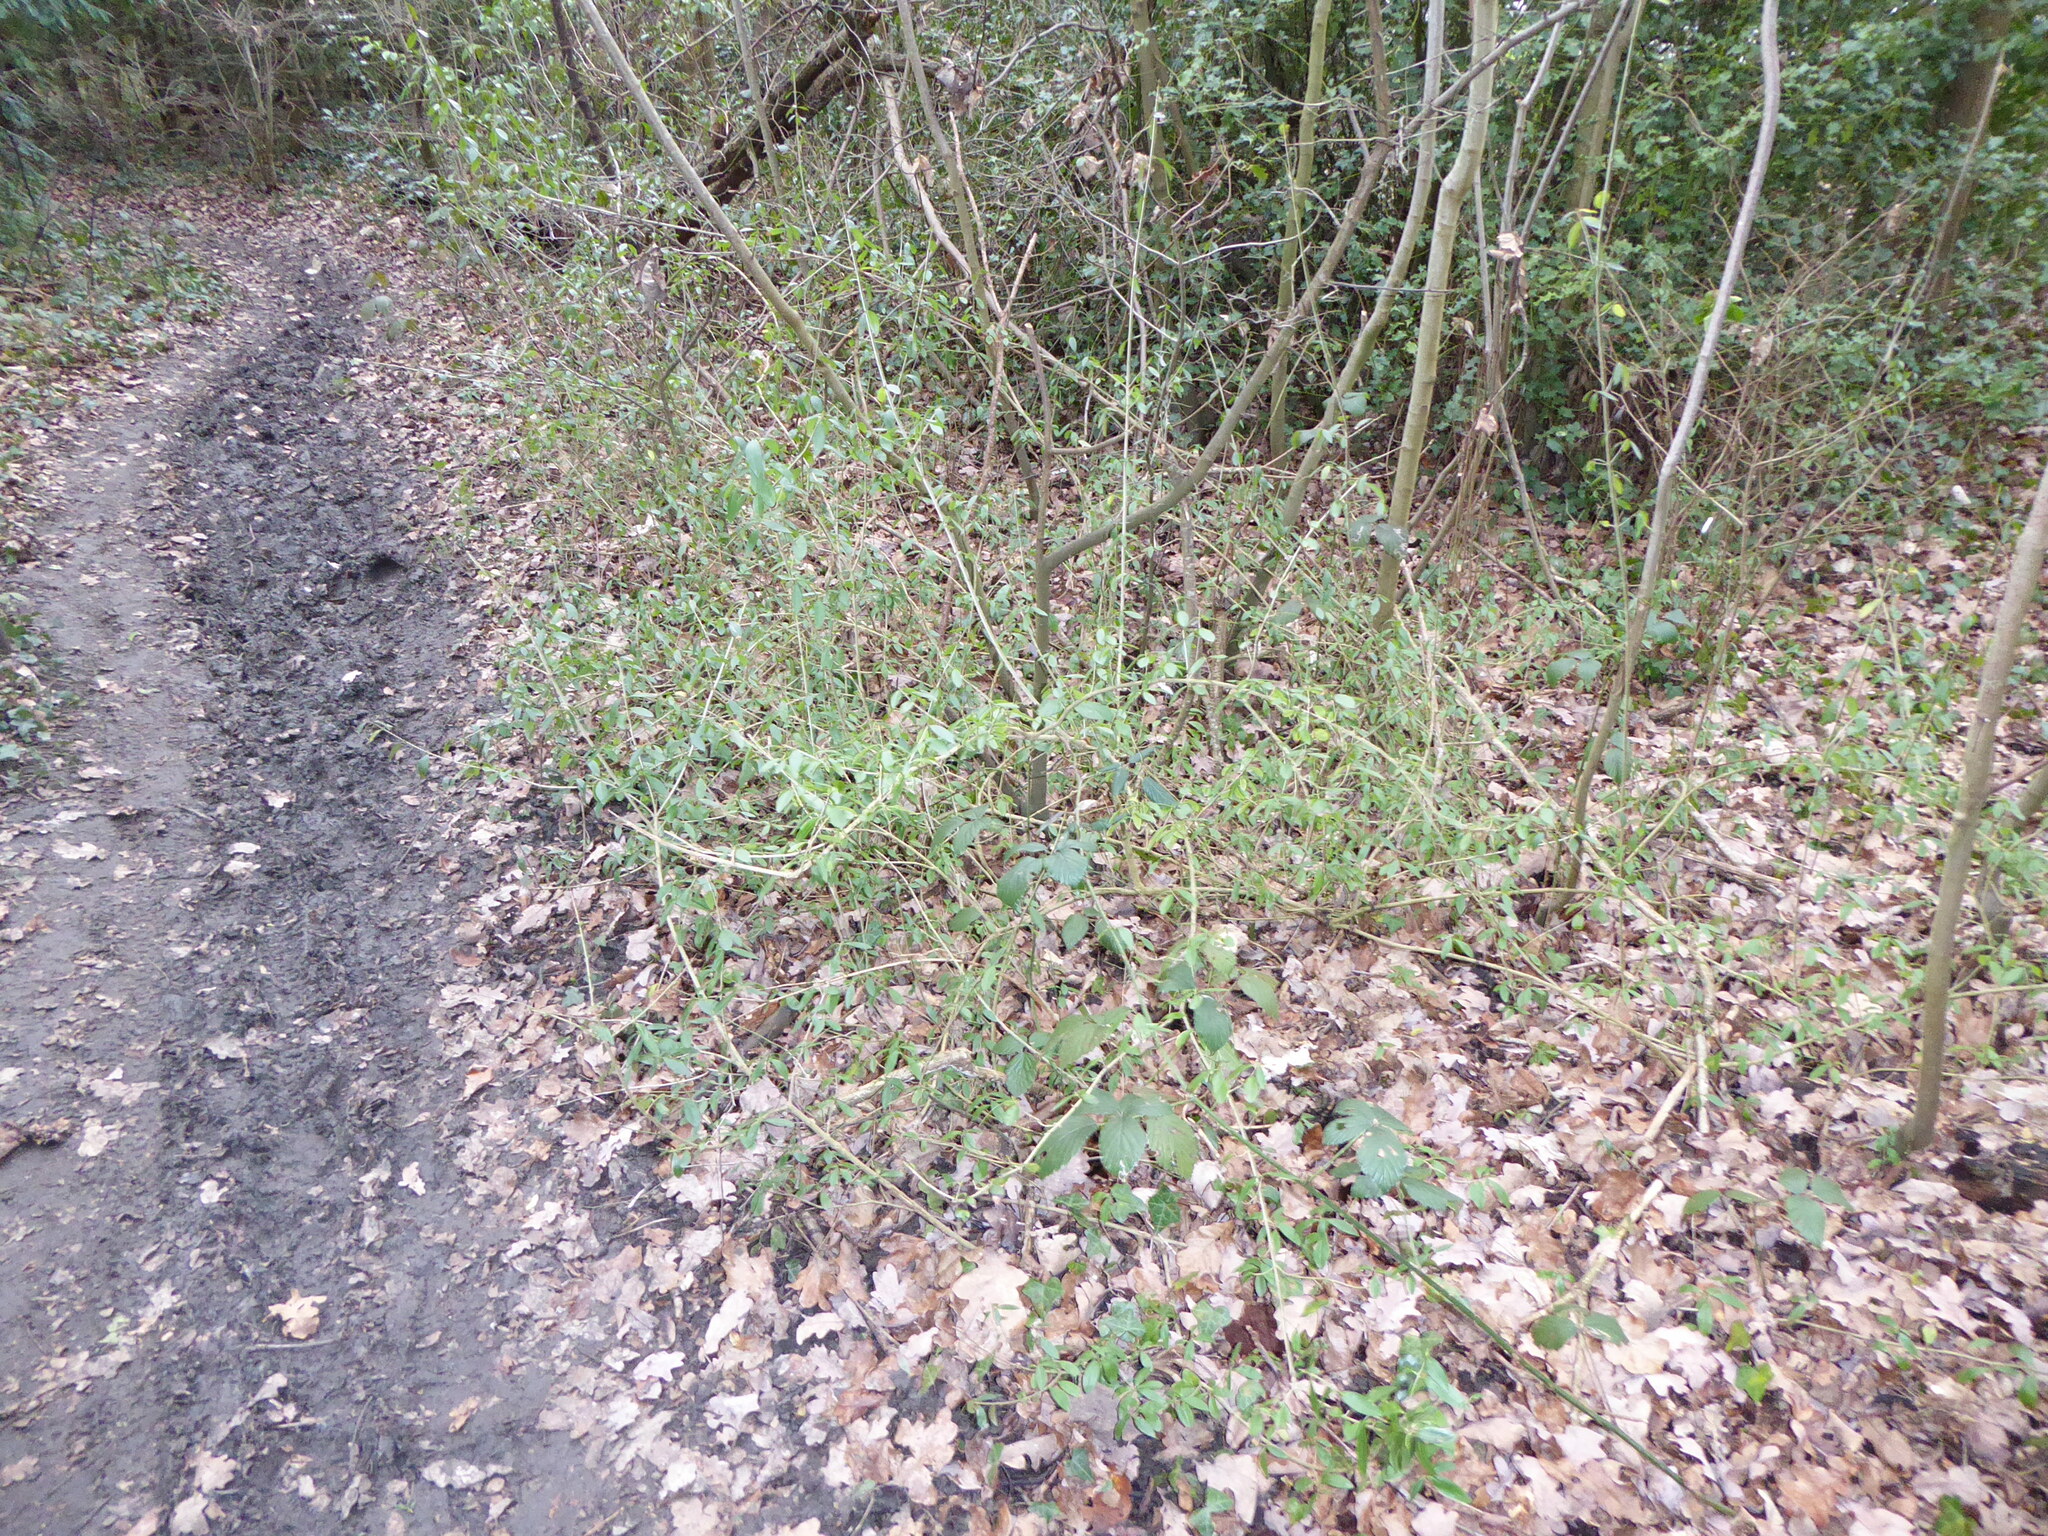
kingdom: Plantae
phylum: Tracheophyta
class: Magnoliopsida
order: Lamiales
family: Oleaceae
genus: Ligustrum
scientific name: Ligustrum vulgare
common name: Wild privet
